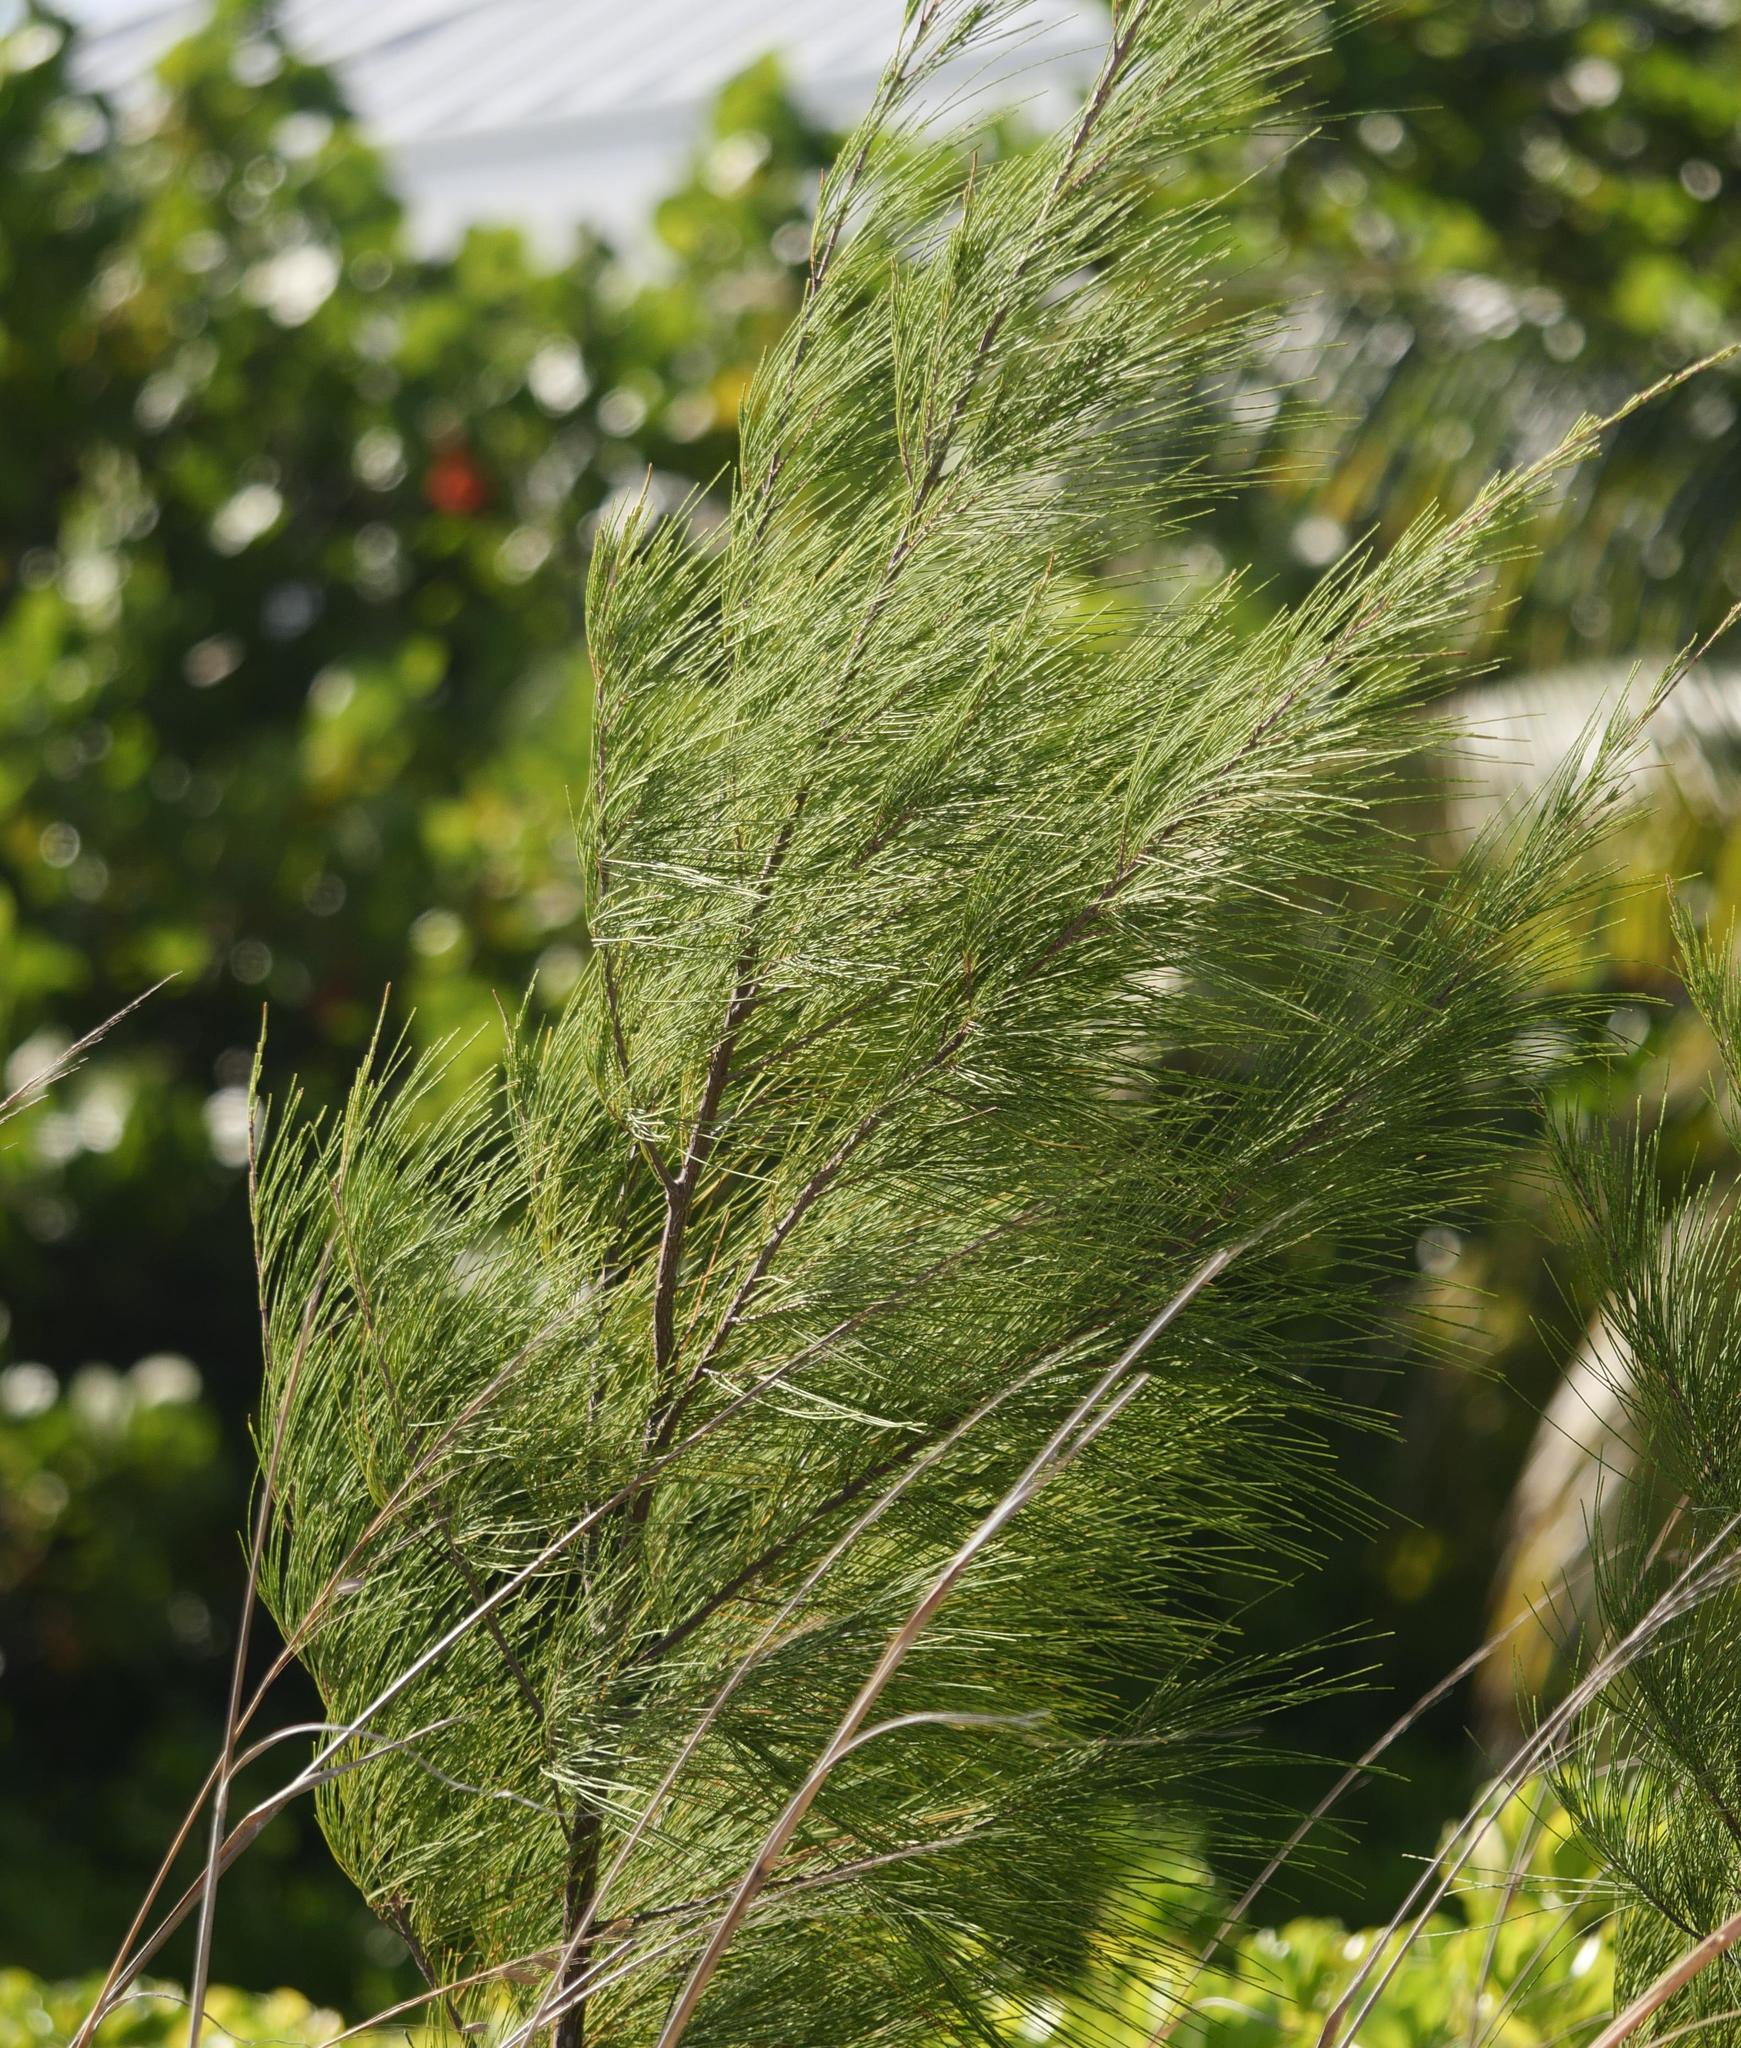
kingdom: Plantae
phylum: Tracheophyta
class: Magnoliopsida
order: Fagales
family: Casuarinaceae
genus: Casuarina
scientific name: Casuarina equisetifolia
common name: Beach sheoak
